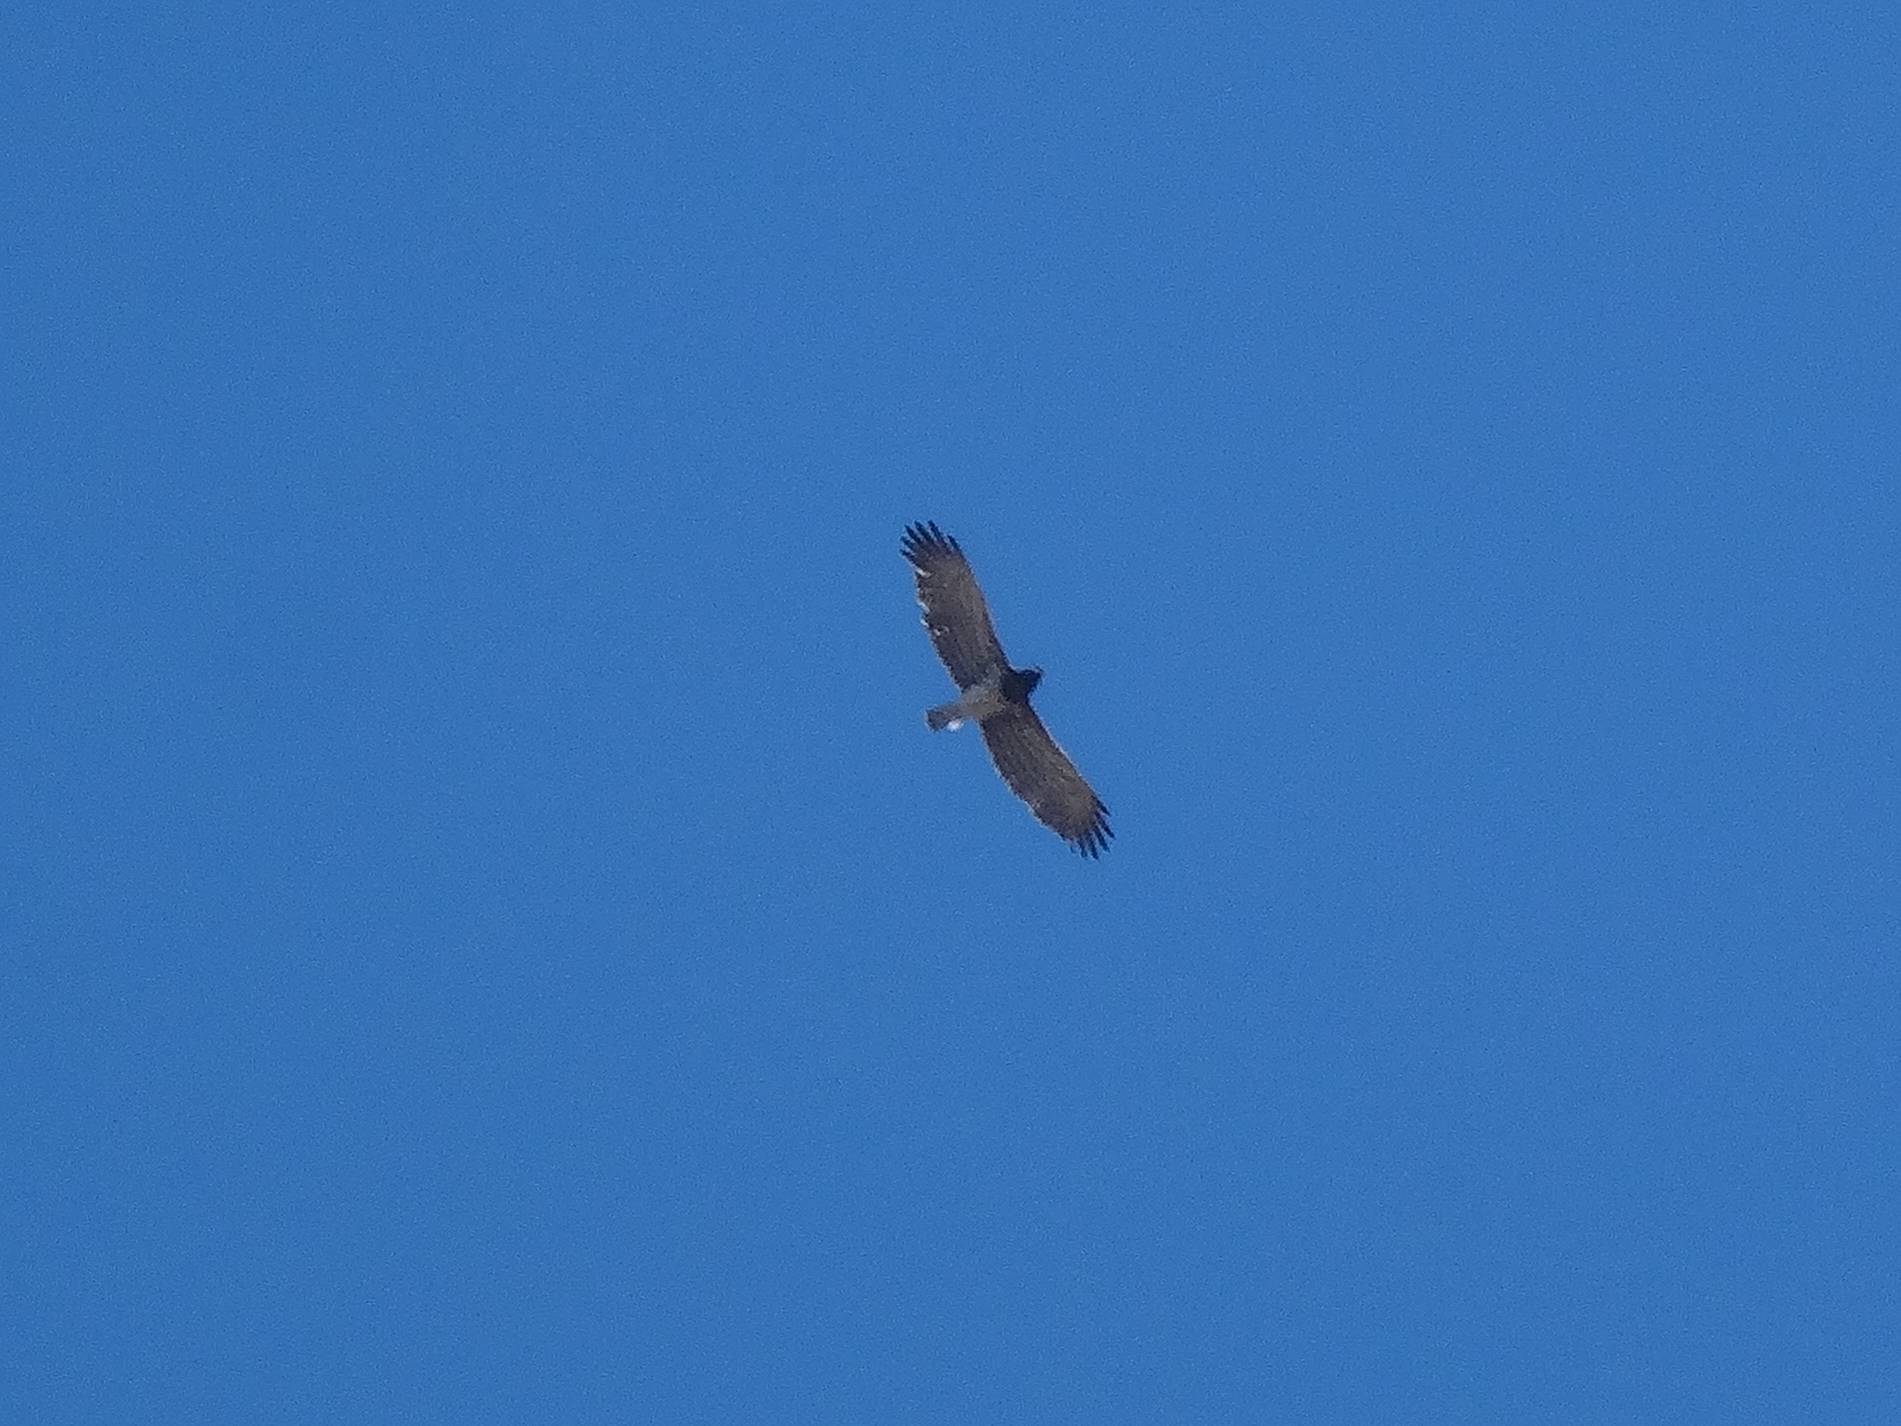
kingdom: Animalia
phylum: Chordata
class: Aves
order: Accipitriformes
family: Accipitridae
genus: Circaetus
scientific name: Circaetus gallicus
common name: Short-toed snake eagle
